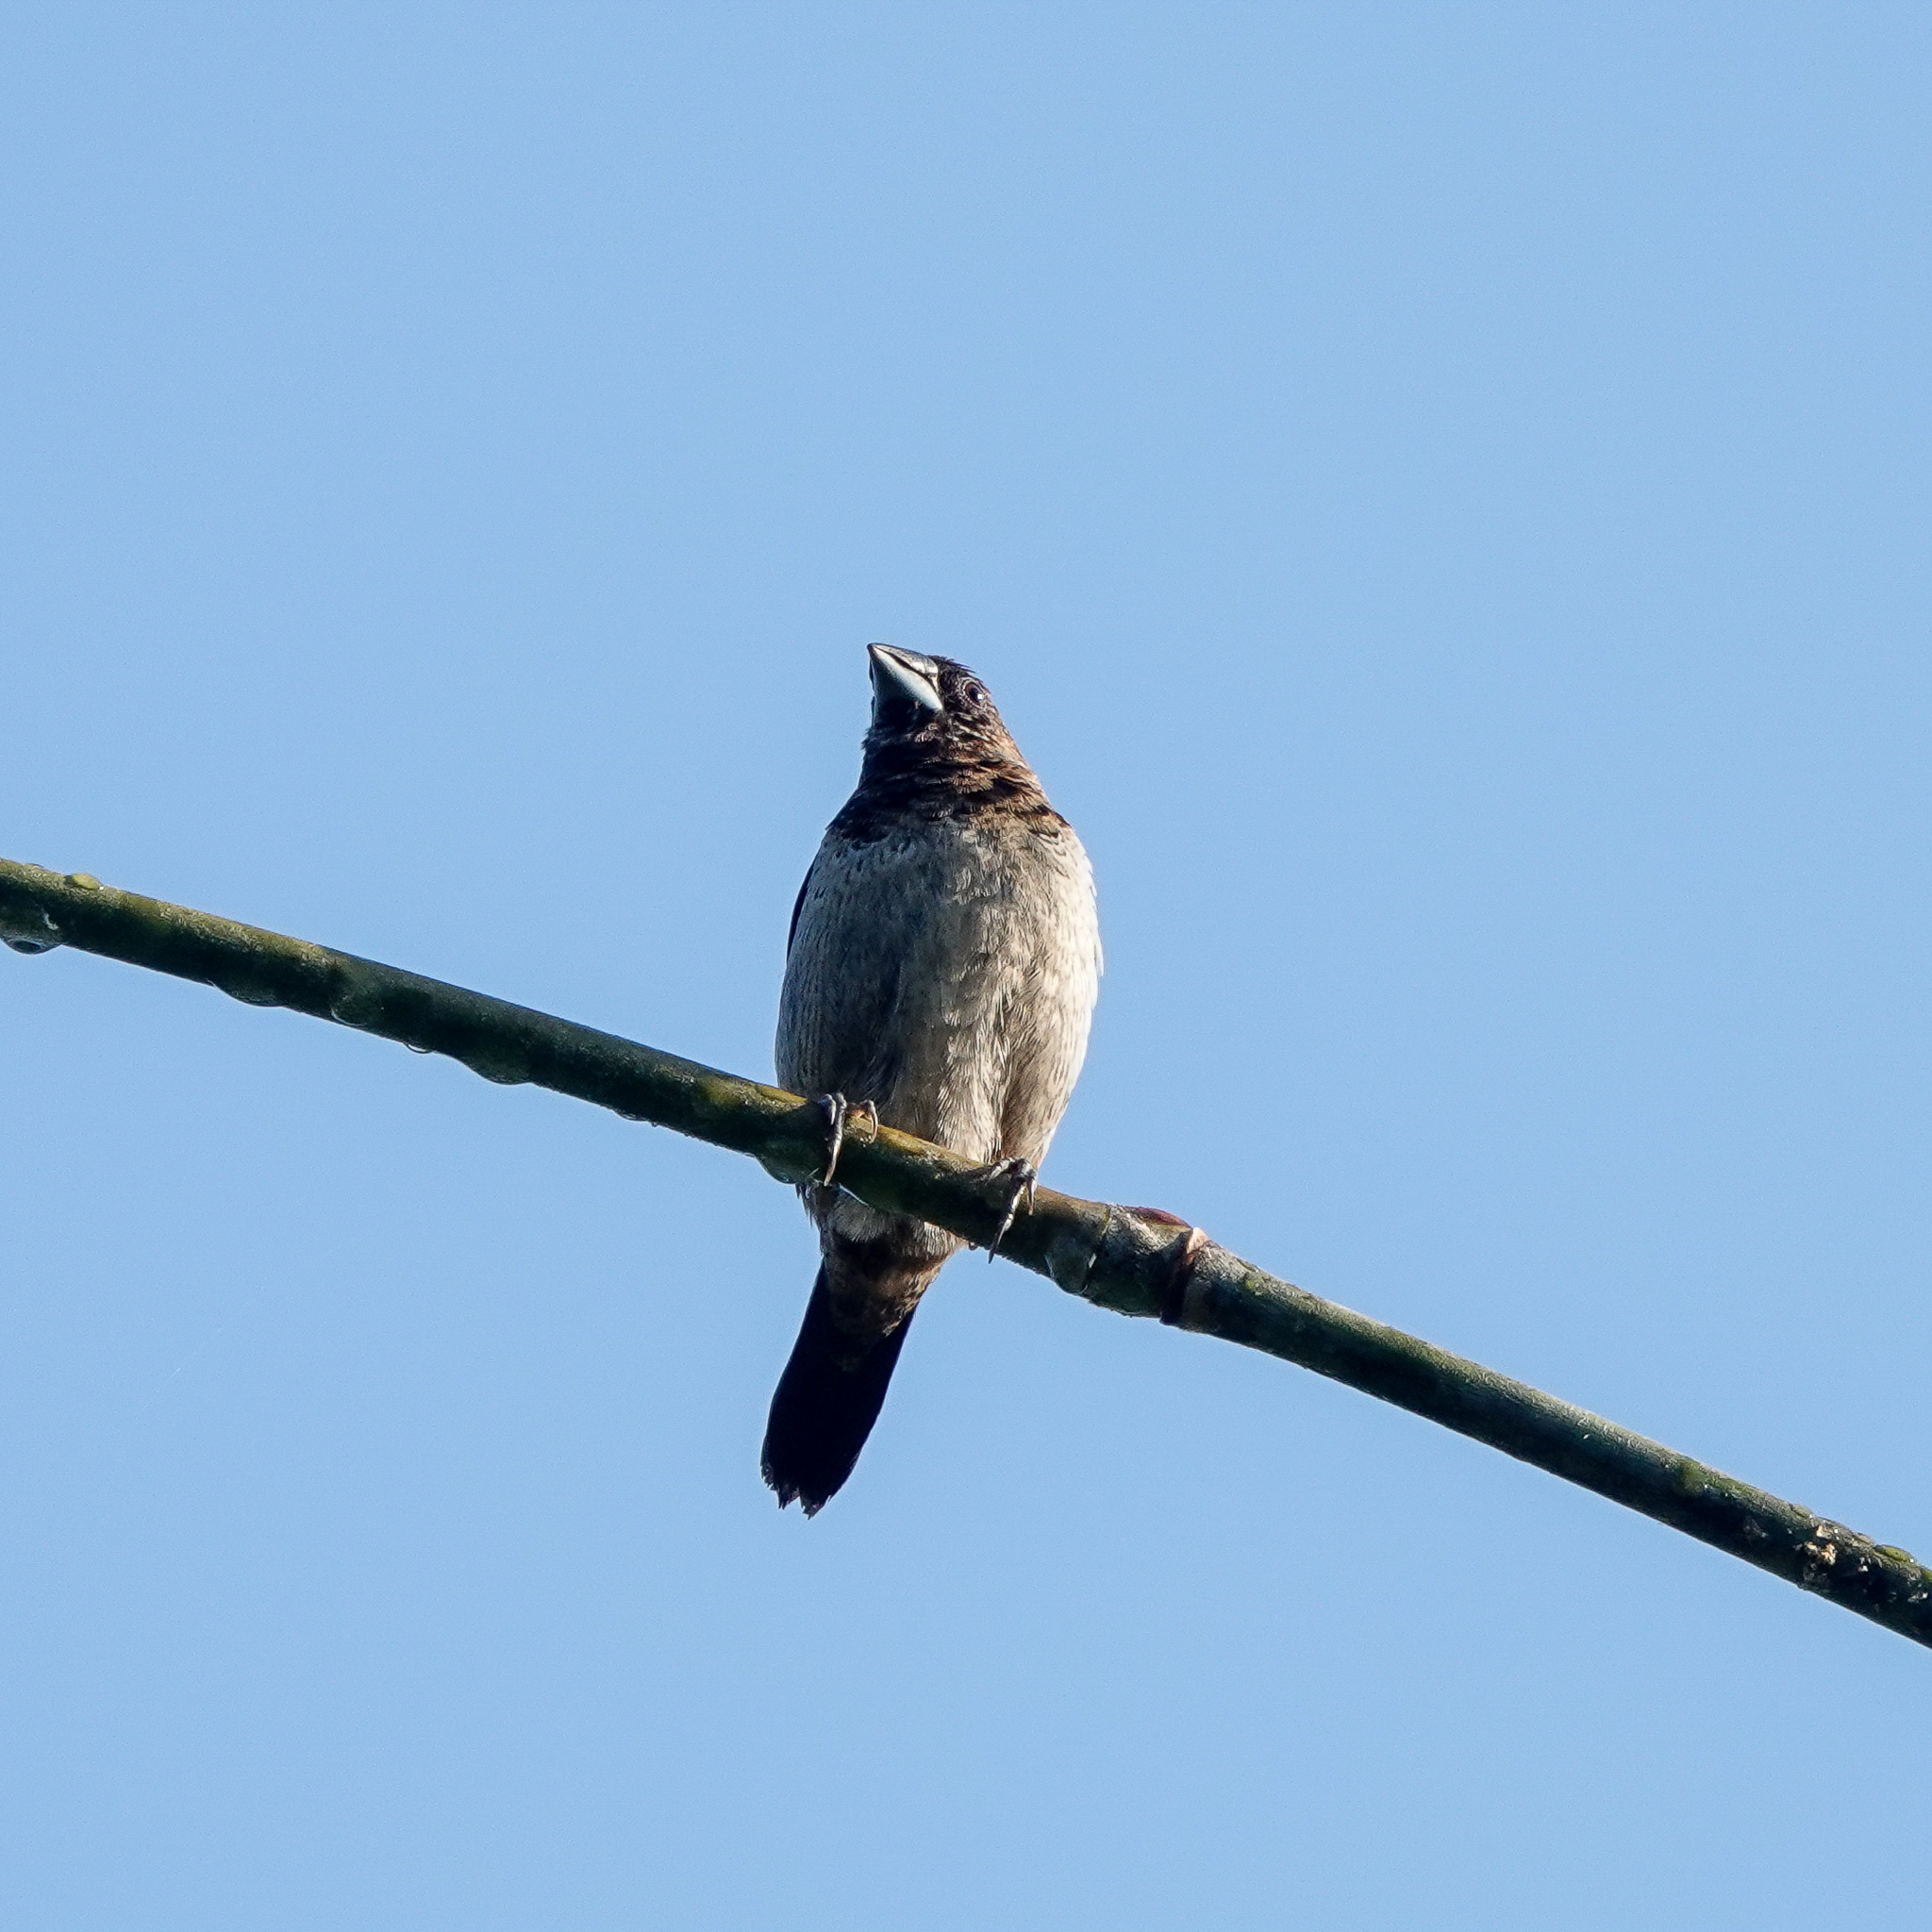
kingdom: Animalia
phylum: Chordata
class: Aves
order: Passeriformes
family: Estrildidae
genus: Lonchura
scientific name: Lonchura striata
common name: White-rumped munia
